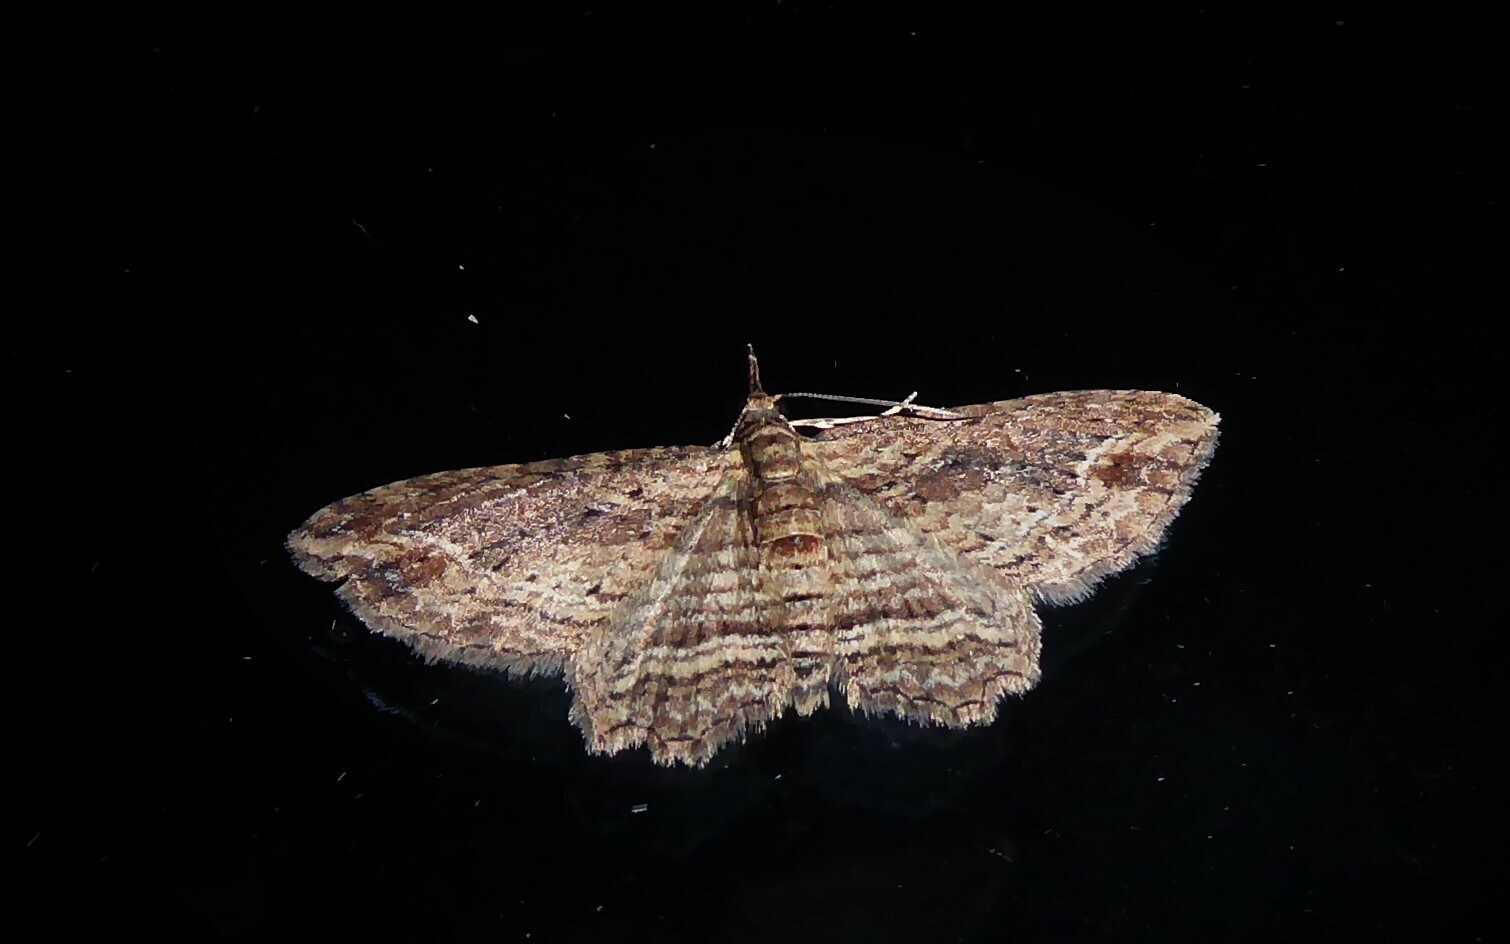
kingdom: Animalia
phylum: Arthropoda
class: Insecta
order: Lepidoptera
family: Geometridae
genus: Chloroclystis
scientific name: Chloroclystis filata
